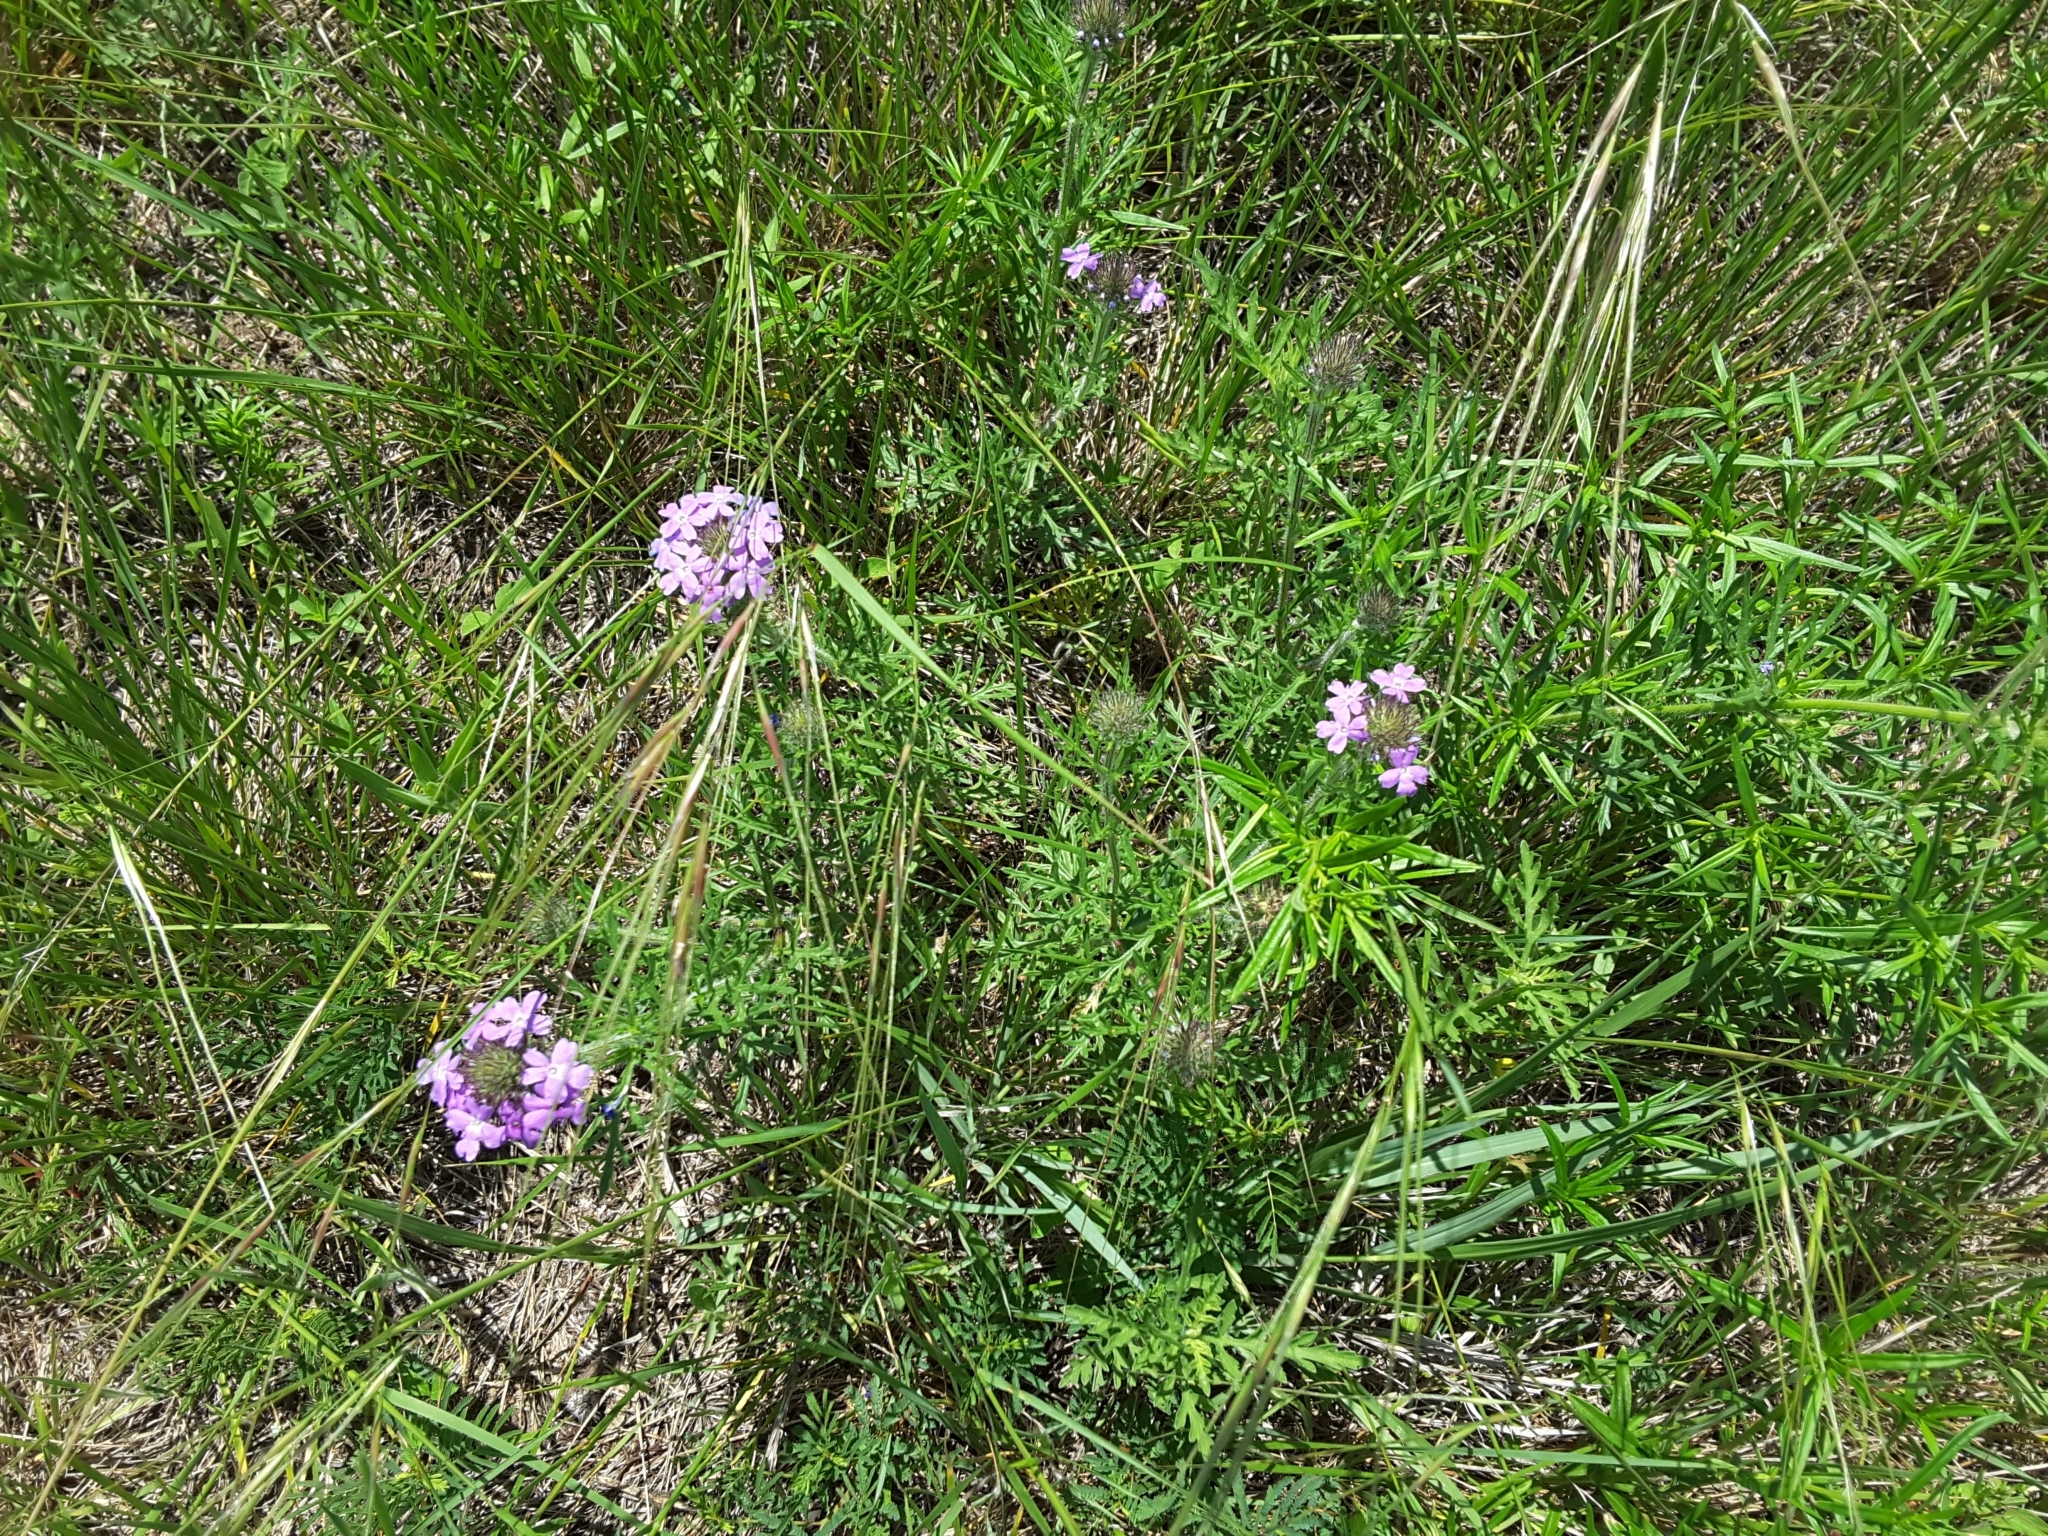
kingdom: Plantae
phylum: Tracheophyta
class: Magnoliopsida
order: Lamiales
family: Verbenaceae
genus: Verbena
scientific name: Verbena bipinnatifida
